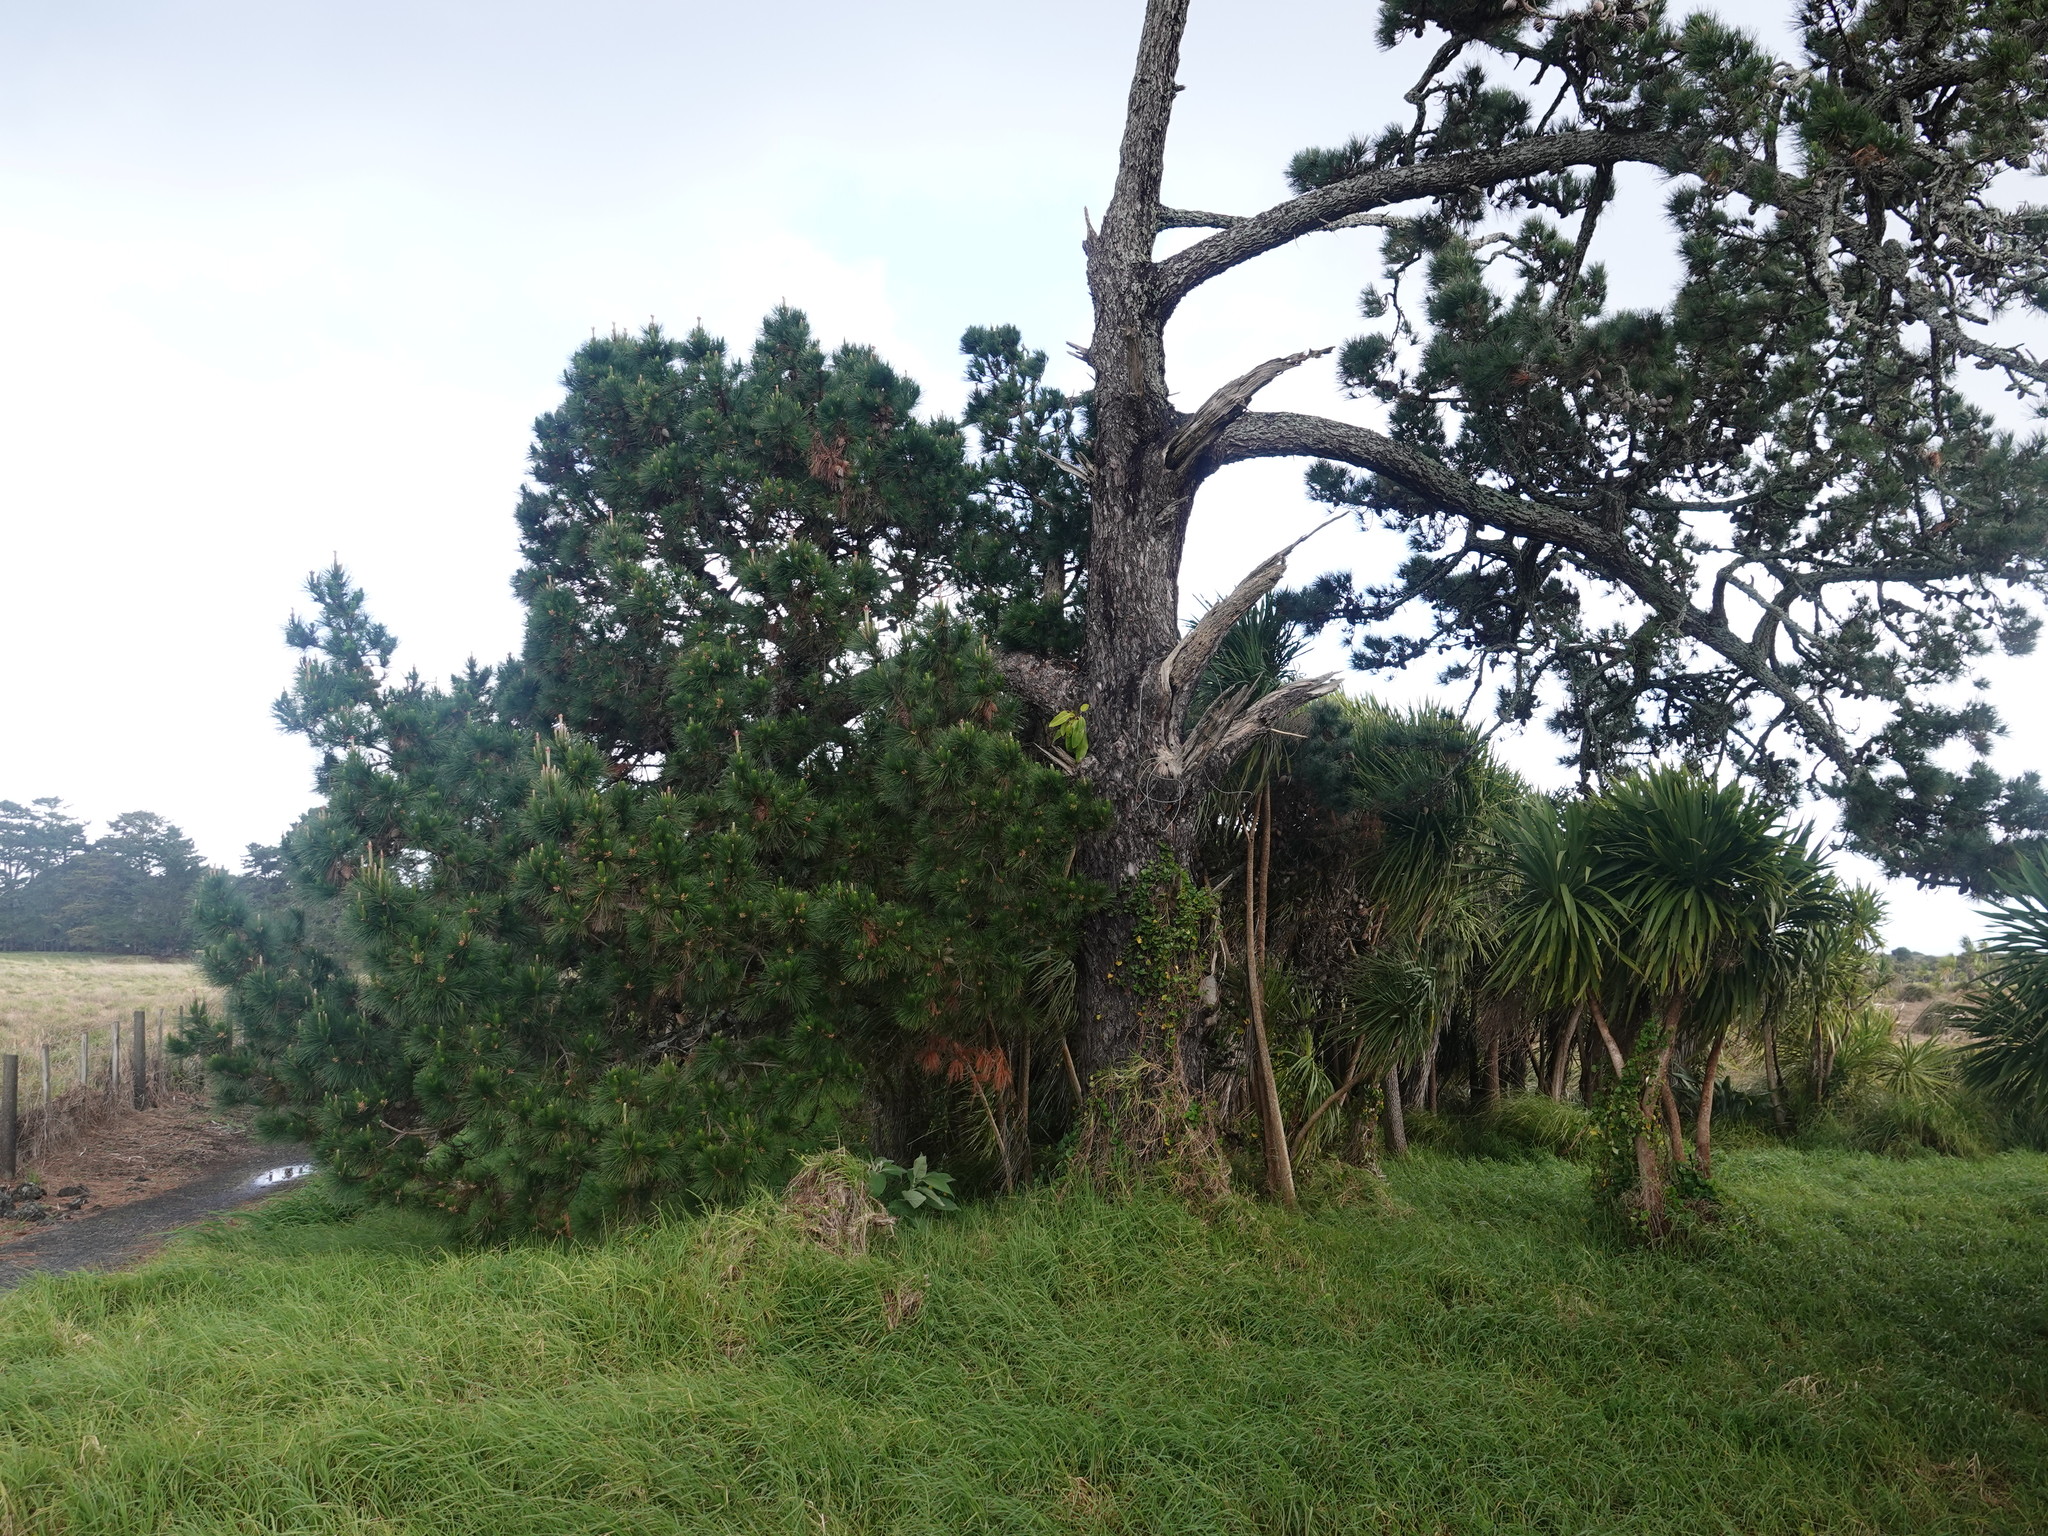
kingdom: Plantae
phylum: Tracheophyta
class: Magnoliopsida
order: Rosales
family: Moraceae
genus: Ficus
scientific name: Ficus macrophylla
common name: Moreton bay fig
